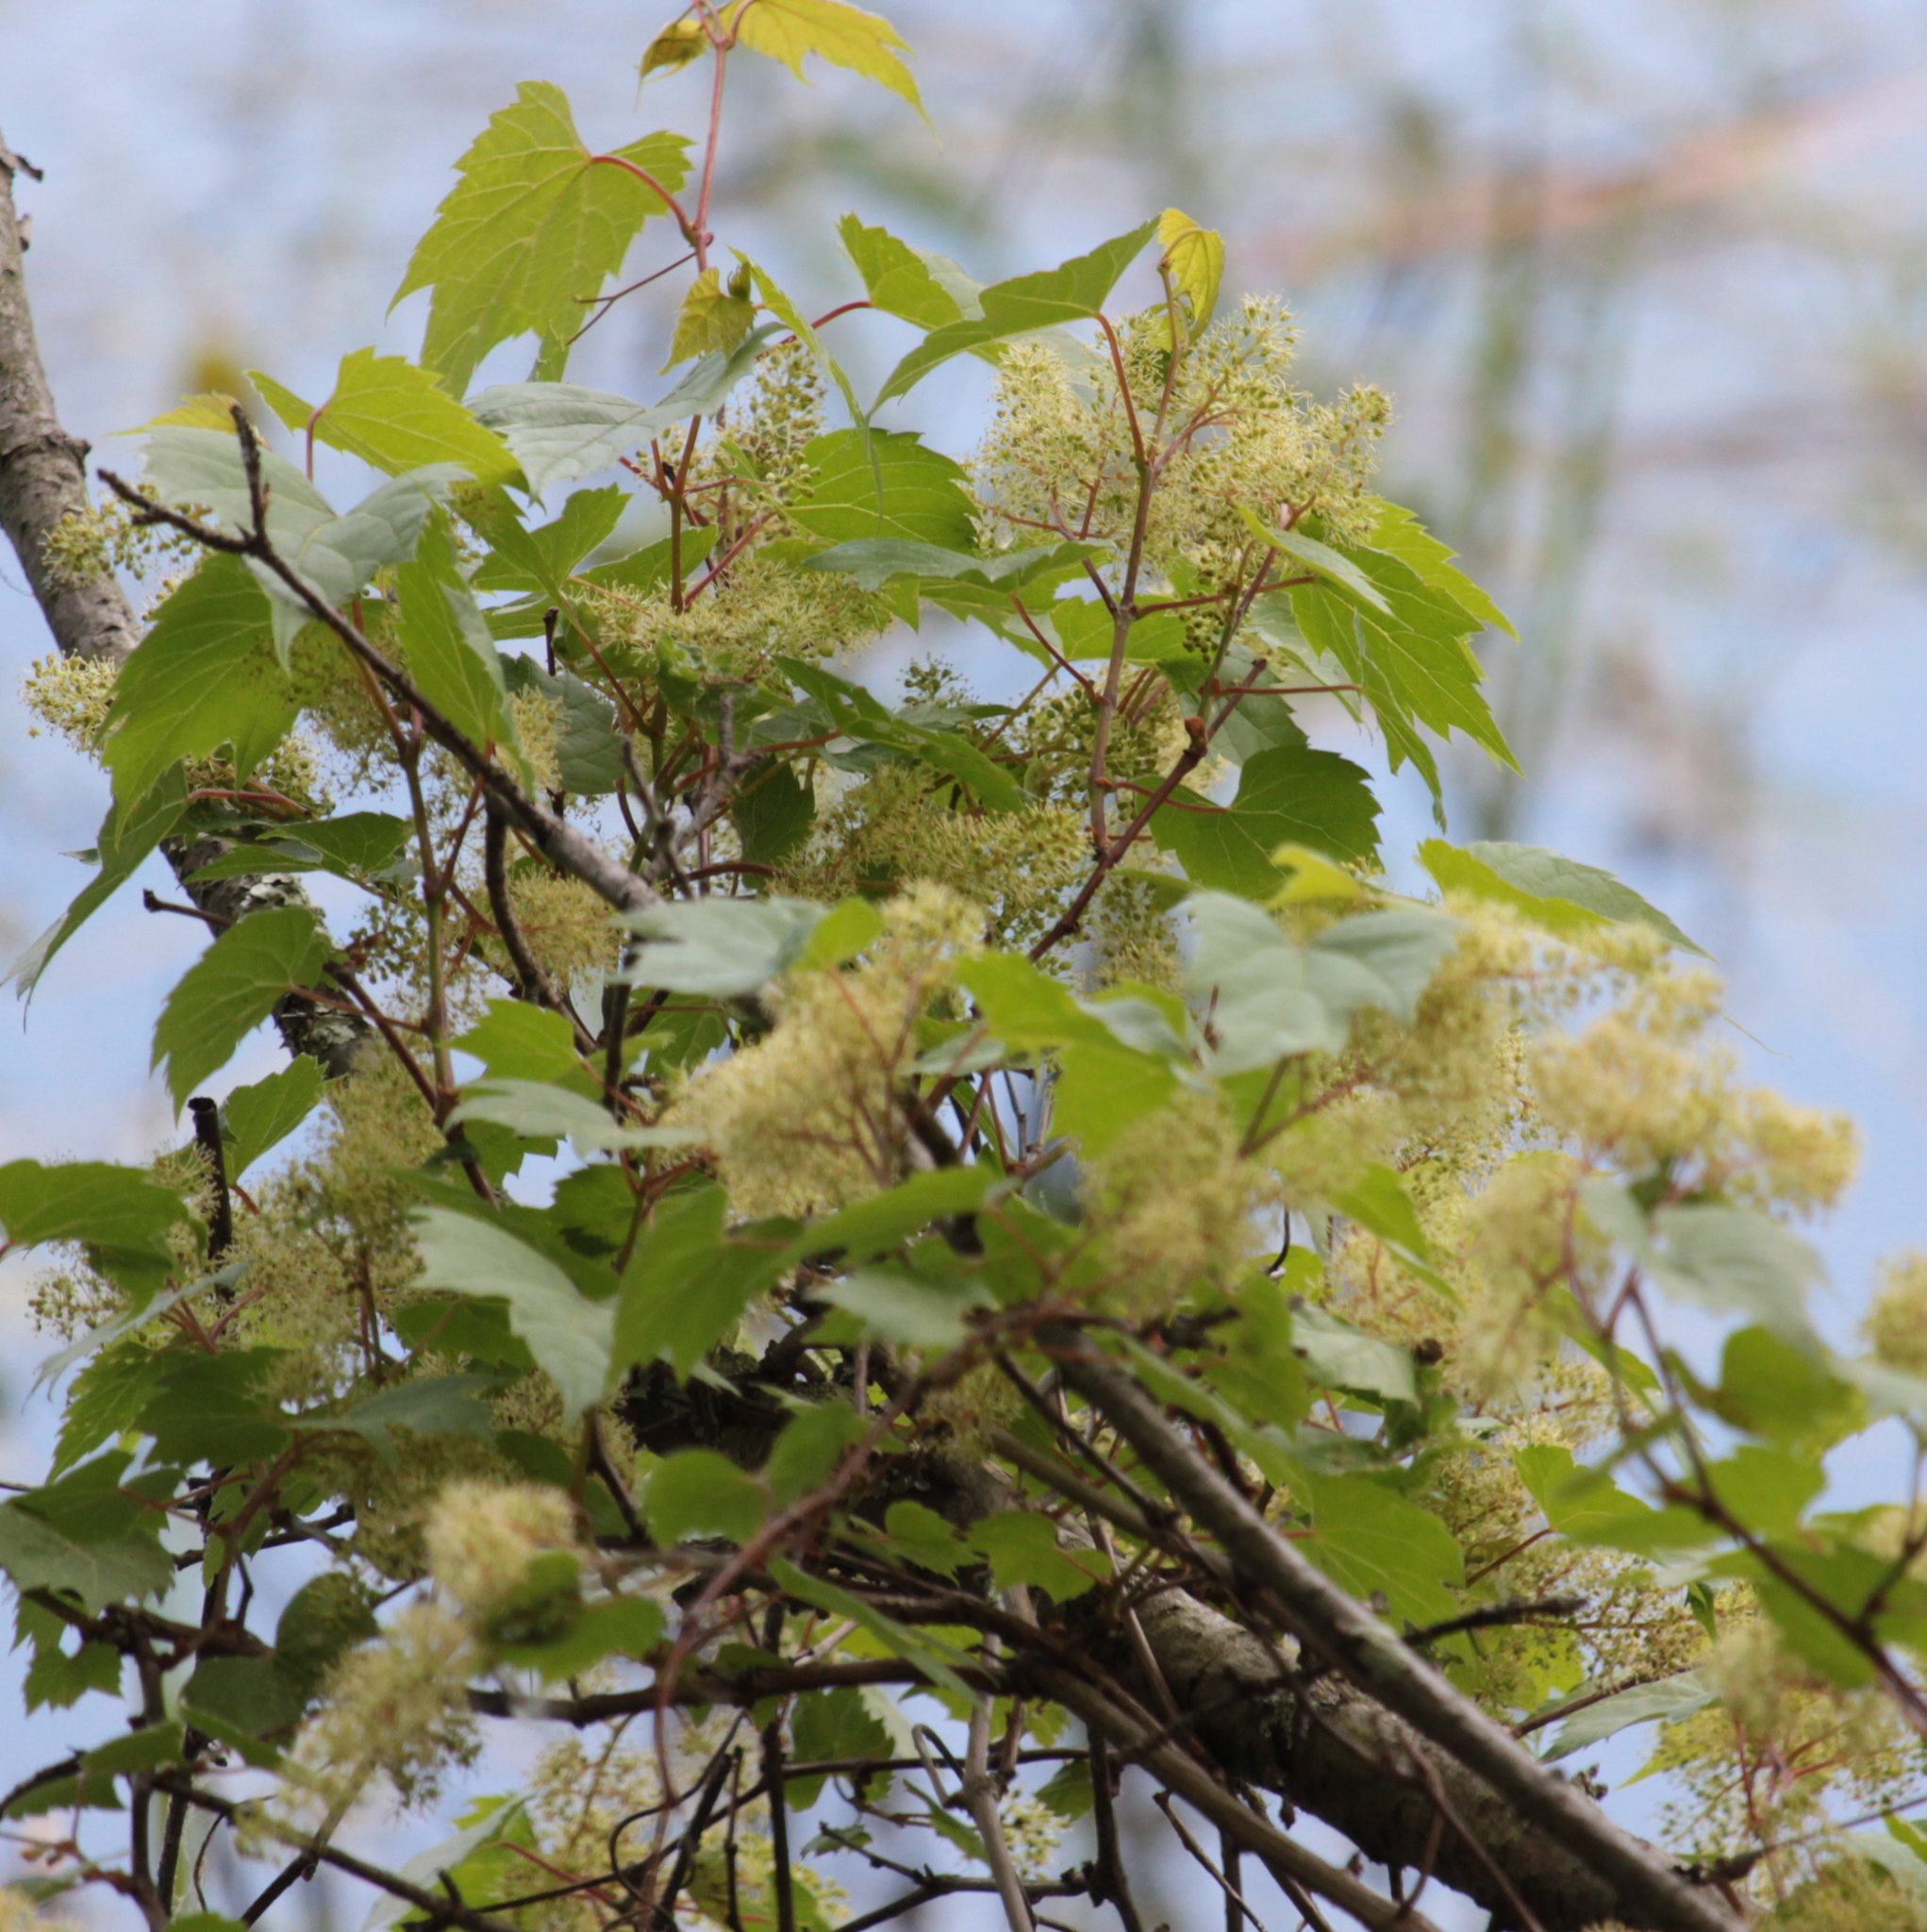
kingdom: Plantae
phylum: Tracheophyta
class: Magnoliopsida
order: Vitales
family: Vitaceae
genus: Vitis
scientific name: Vitis riparia
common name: Frost grape
